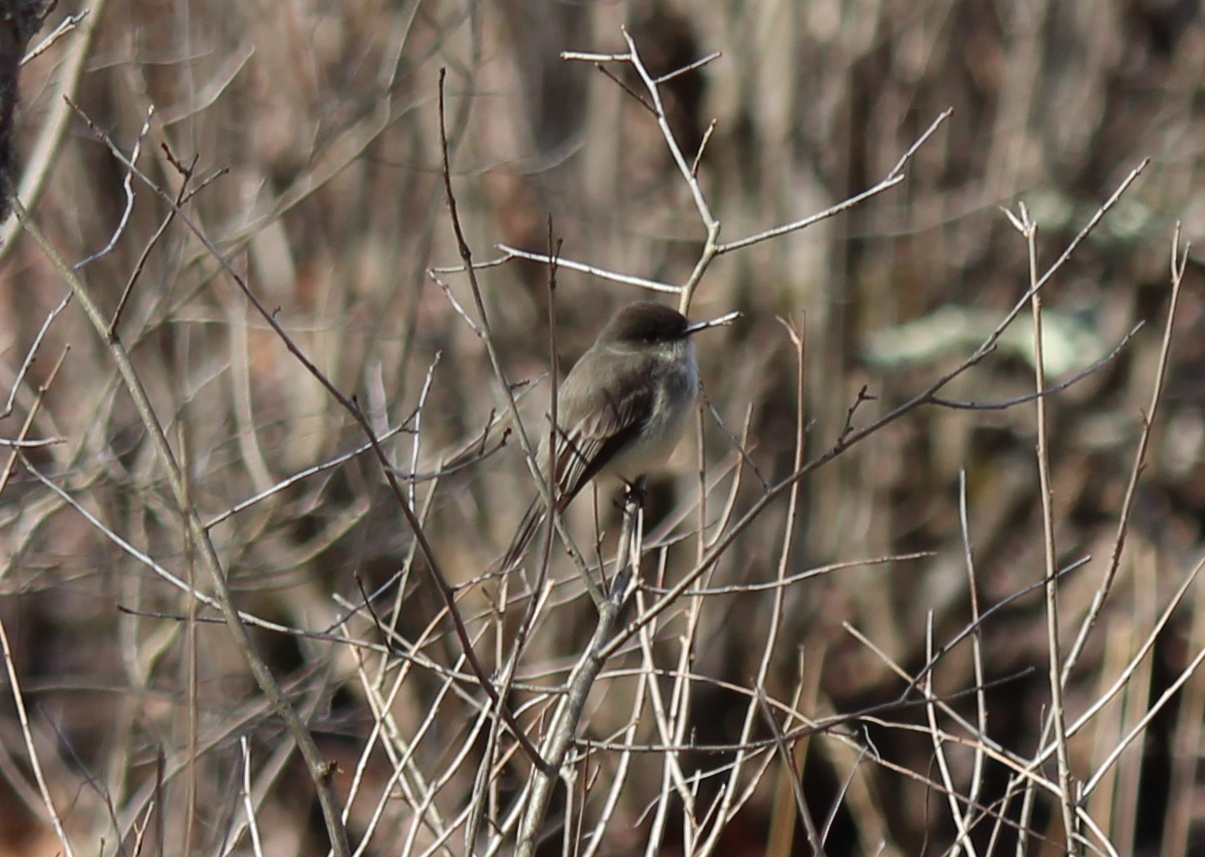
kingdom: Animalia
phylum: Chordata
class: Aves
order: Passeriformes
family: Tyrannidae
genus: Sayornis
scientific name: Sayornis phoebe
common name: Eastern phoebe
